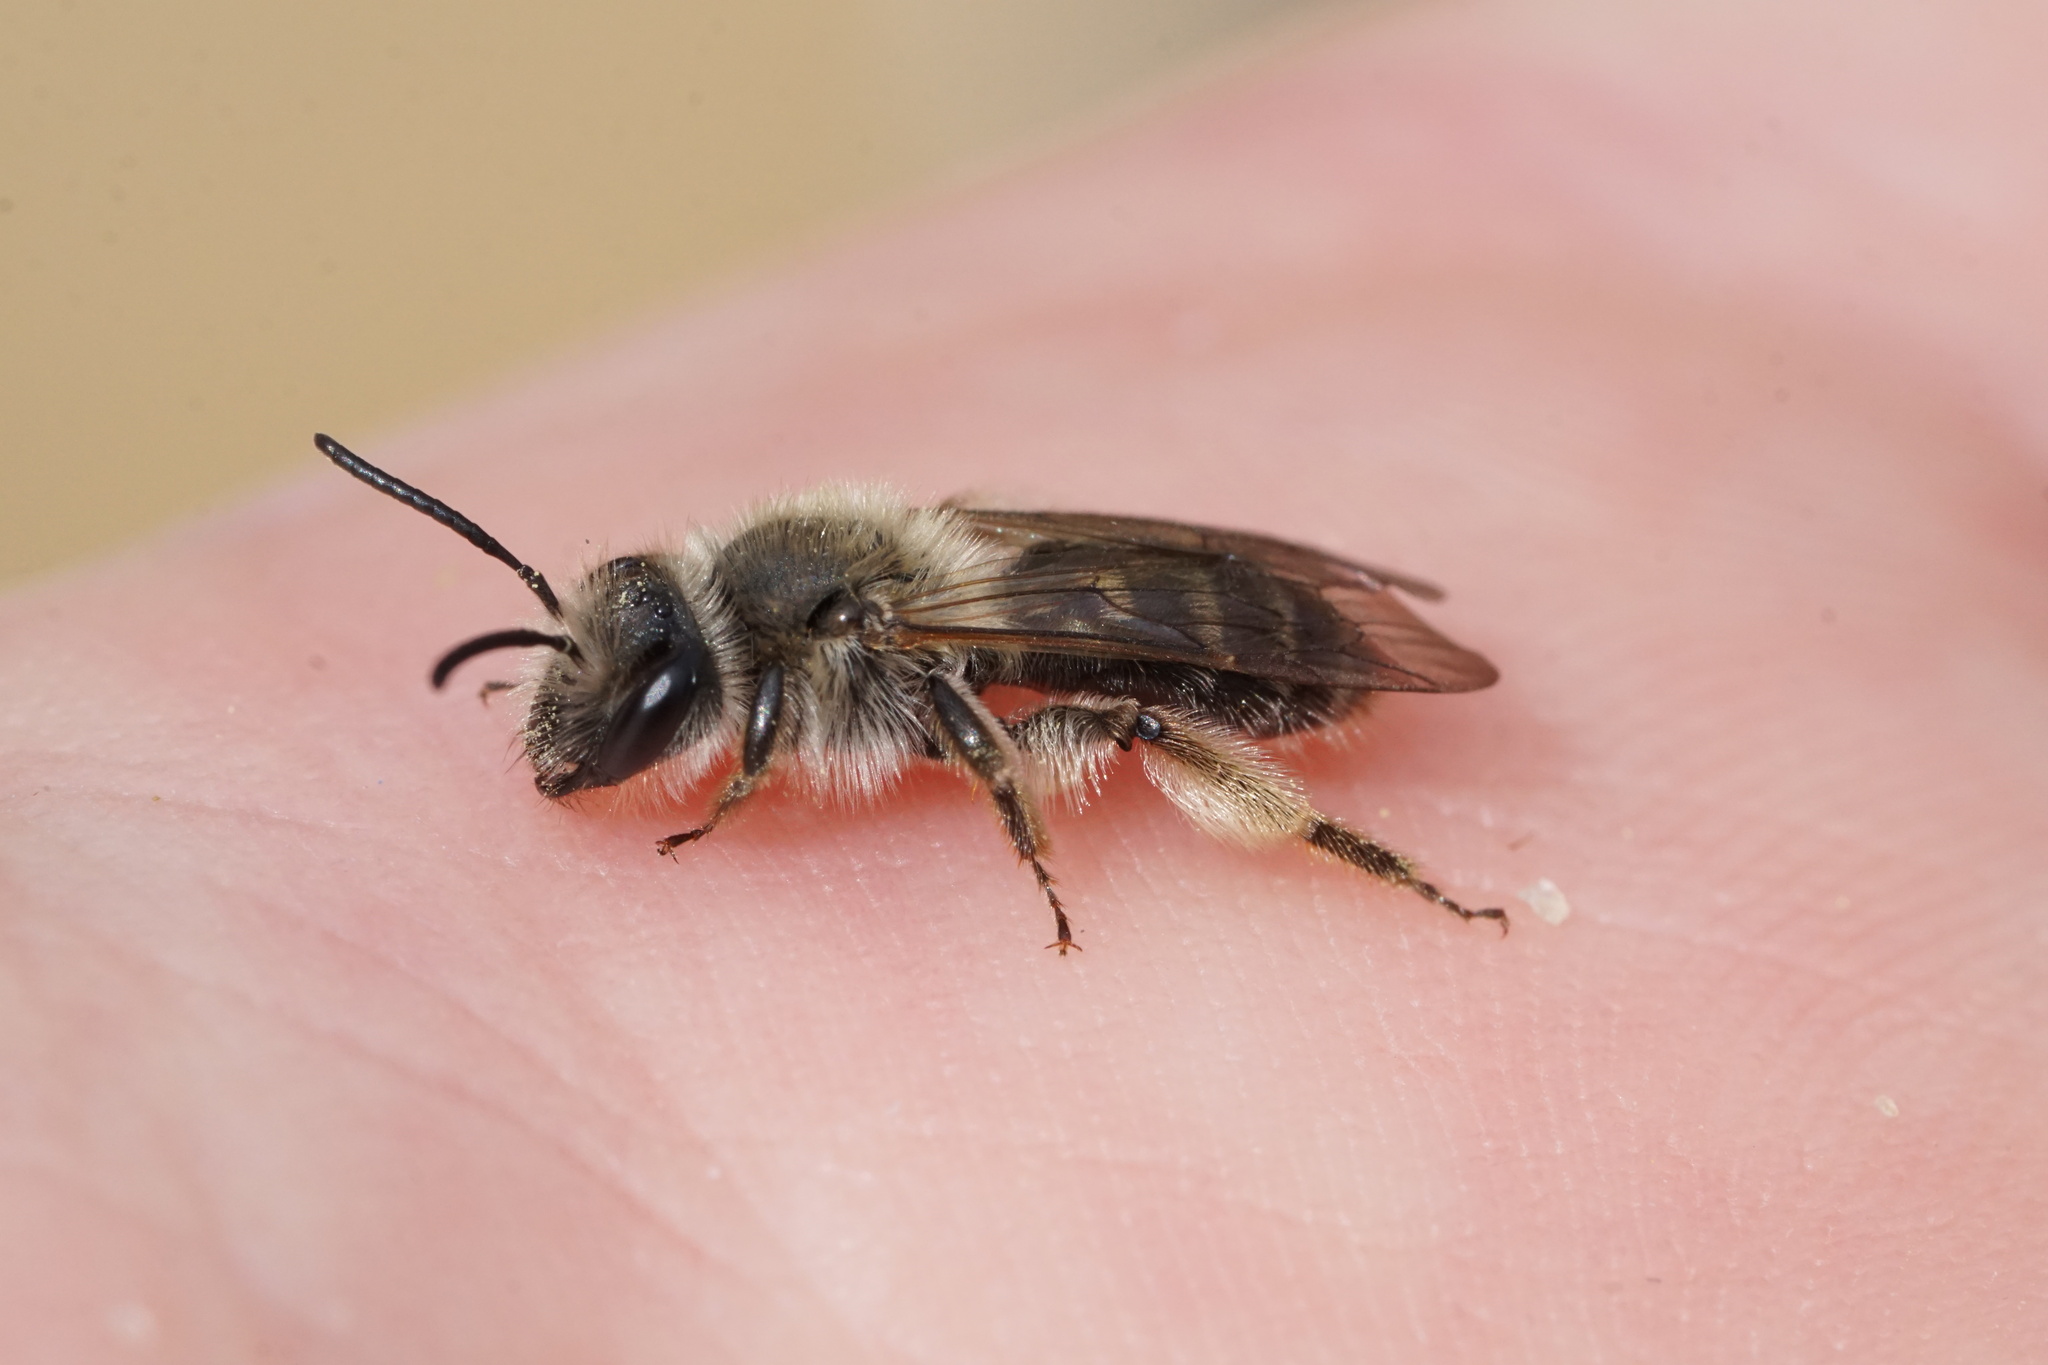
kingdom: Animalia
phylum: Arthropoda
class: Insecta
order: Hymenoptera
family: Andrenidae
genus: Andrena
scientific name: Andrena tridens
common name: Trident miner bee
